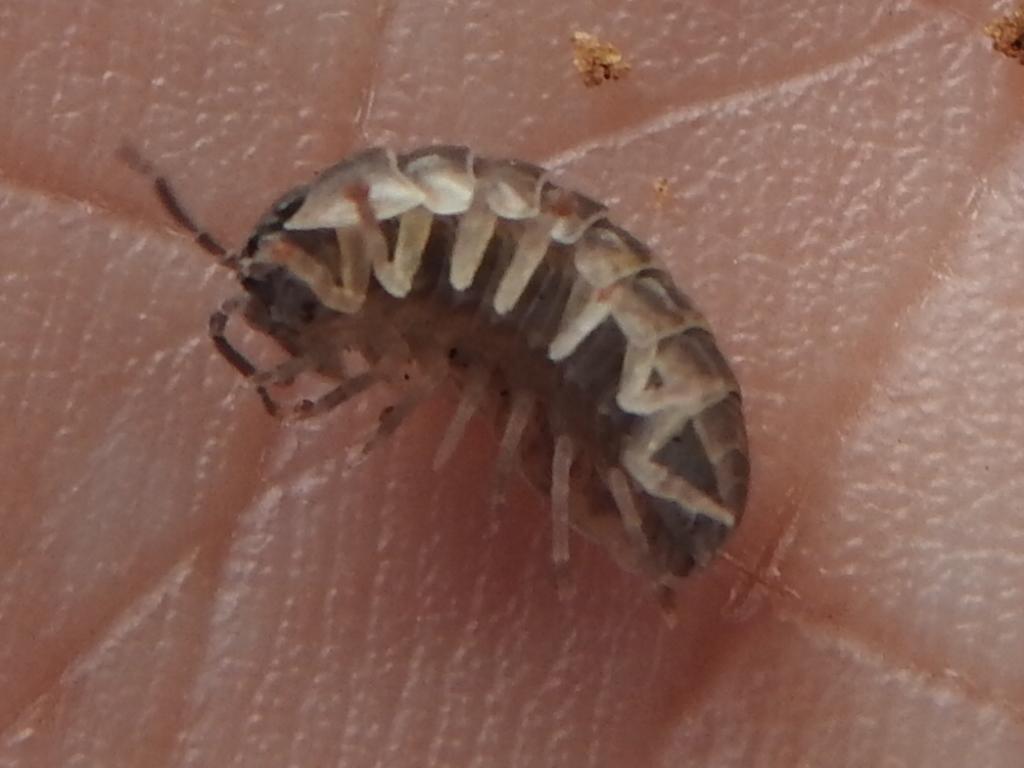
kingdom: Animalia
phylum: Arthropoda
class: Malacostraca
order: Isopoda
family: Armadillidiidae
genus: Armadillidium
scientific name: Armadillidium vulgare
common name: Common pill woodlouse
